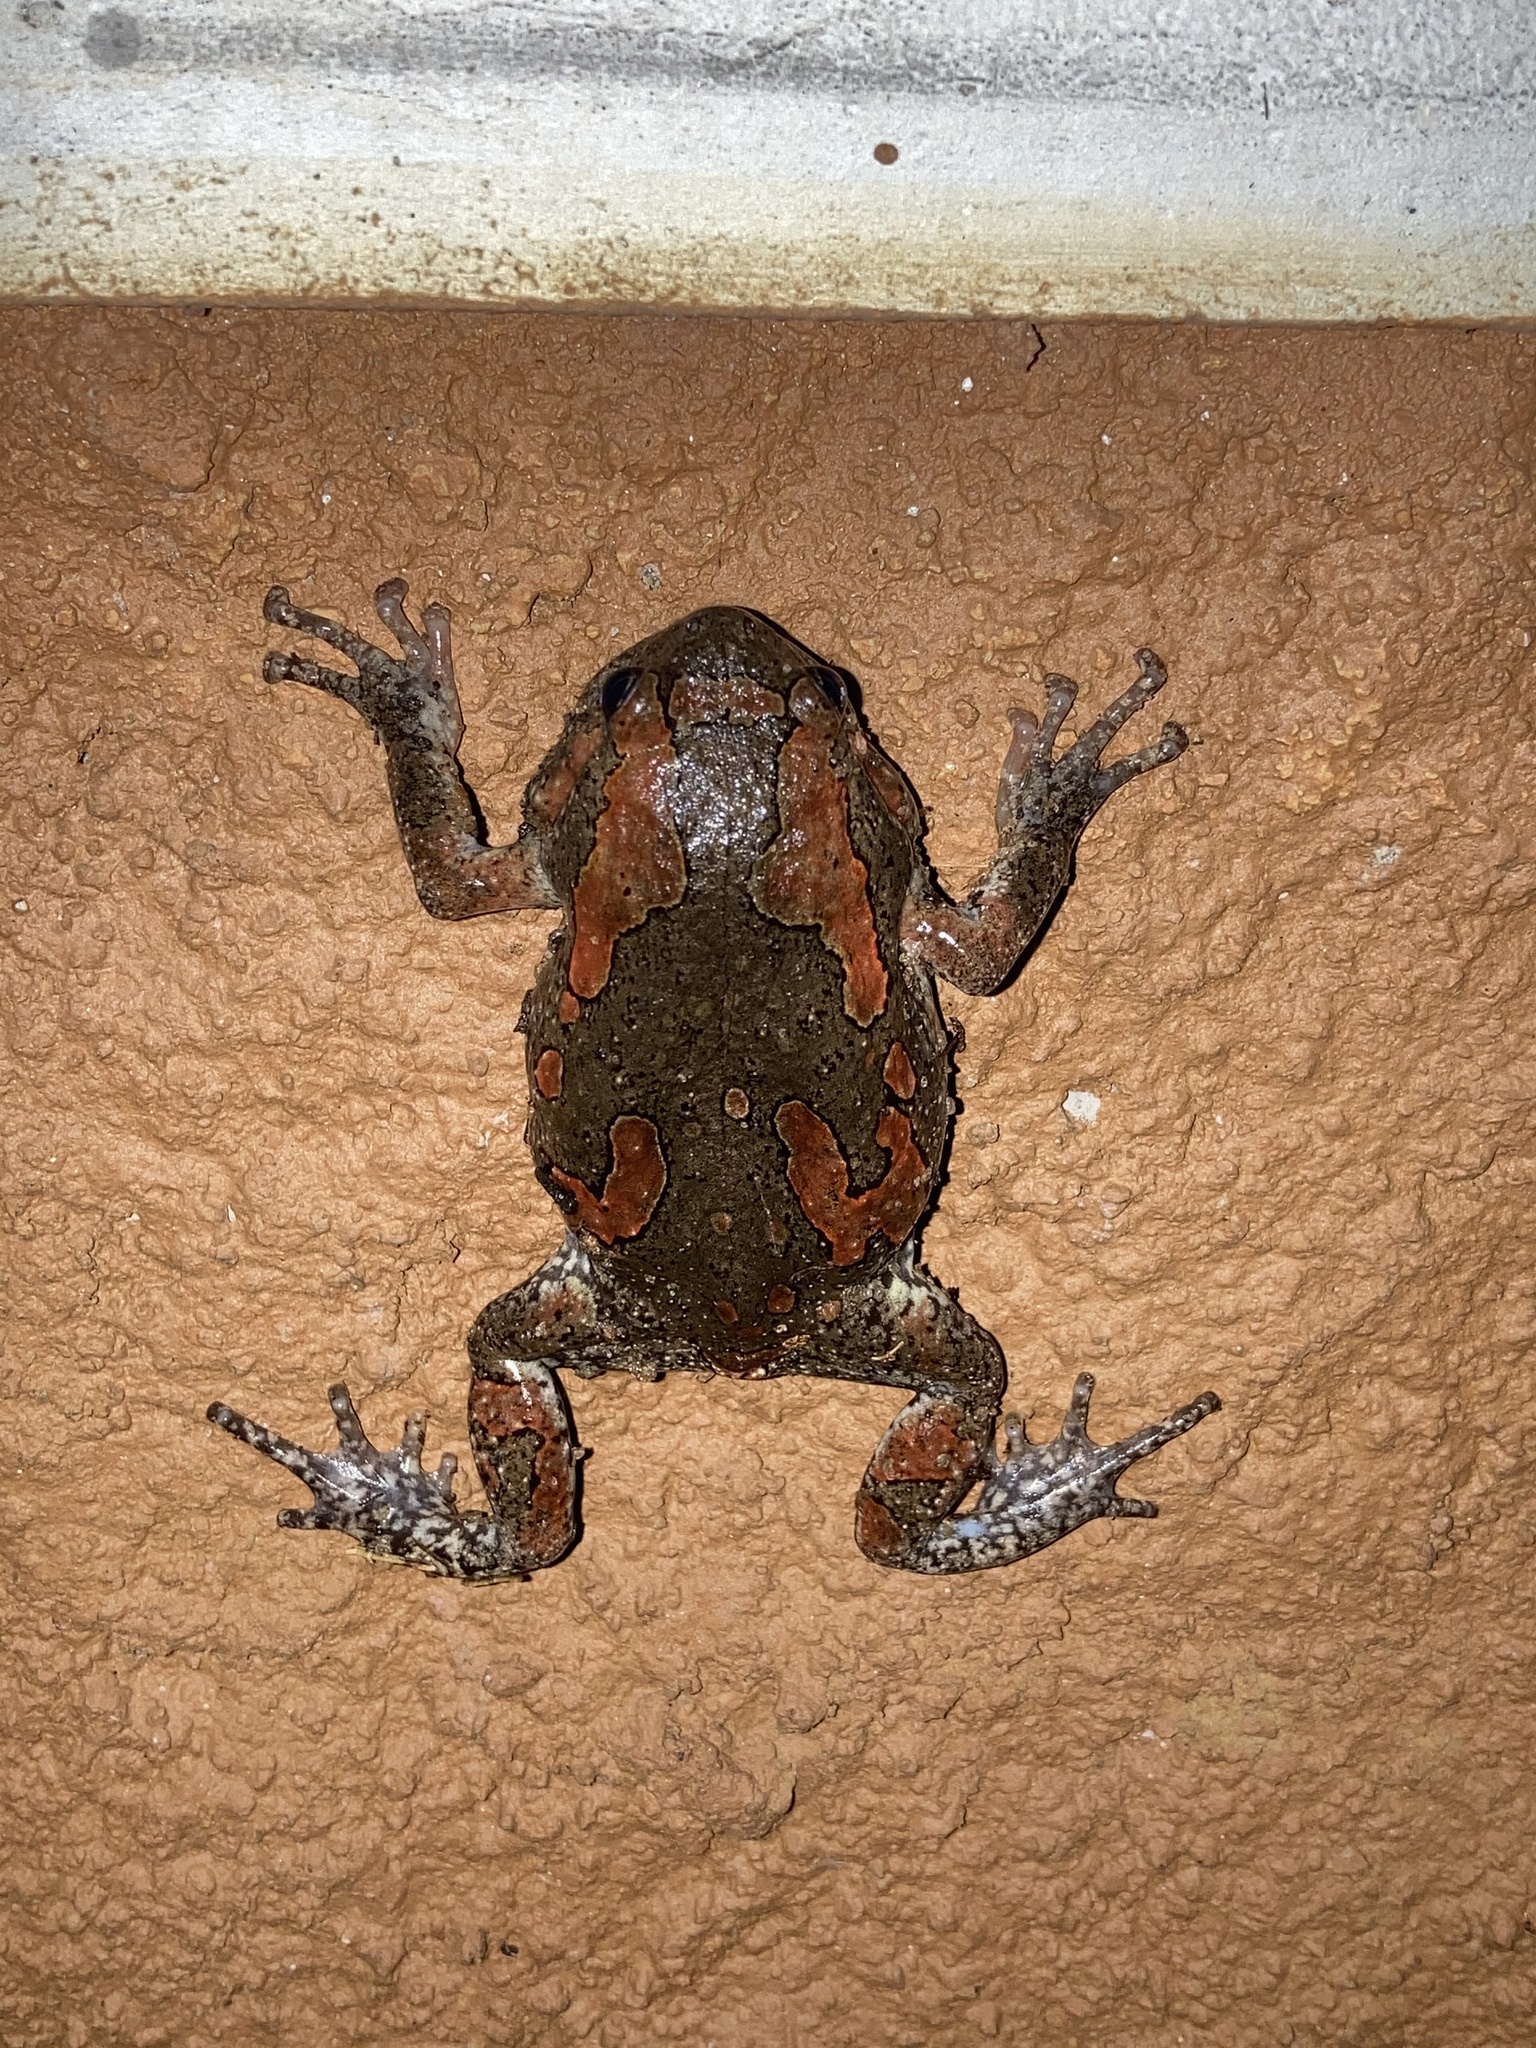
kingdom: Animalia
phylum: Chordata
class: Amphibia
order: Anura
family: Microhylidae
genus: Uperodon
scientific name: Uperodon taprobanicus
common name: Ceylon kaloula
